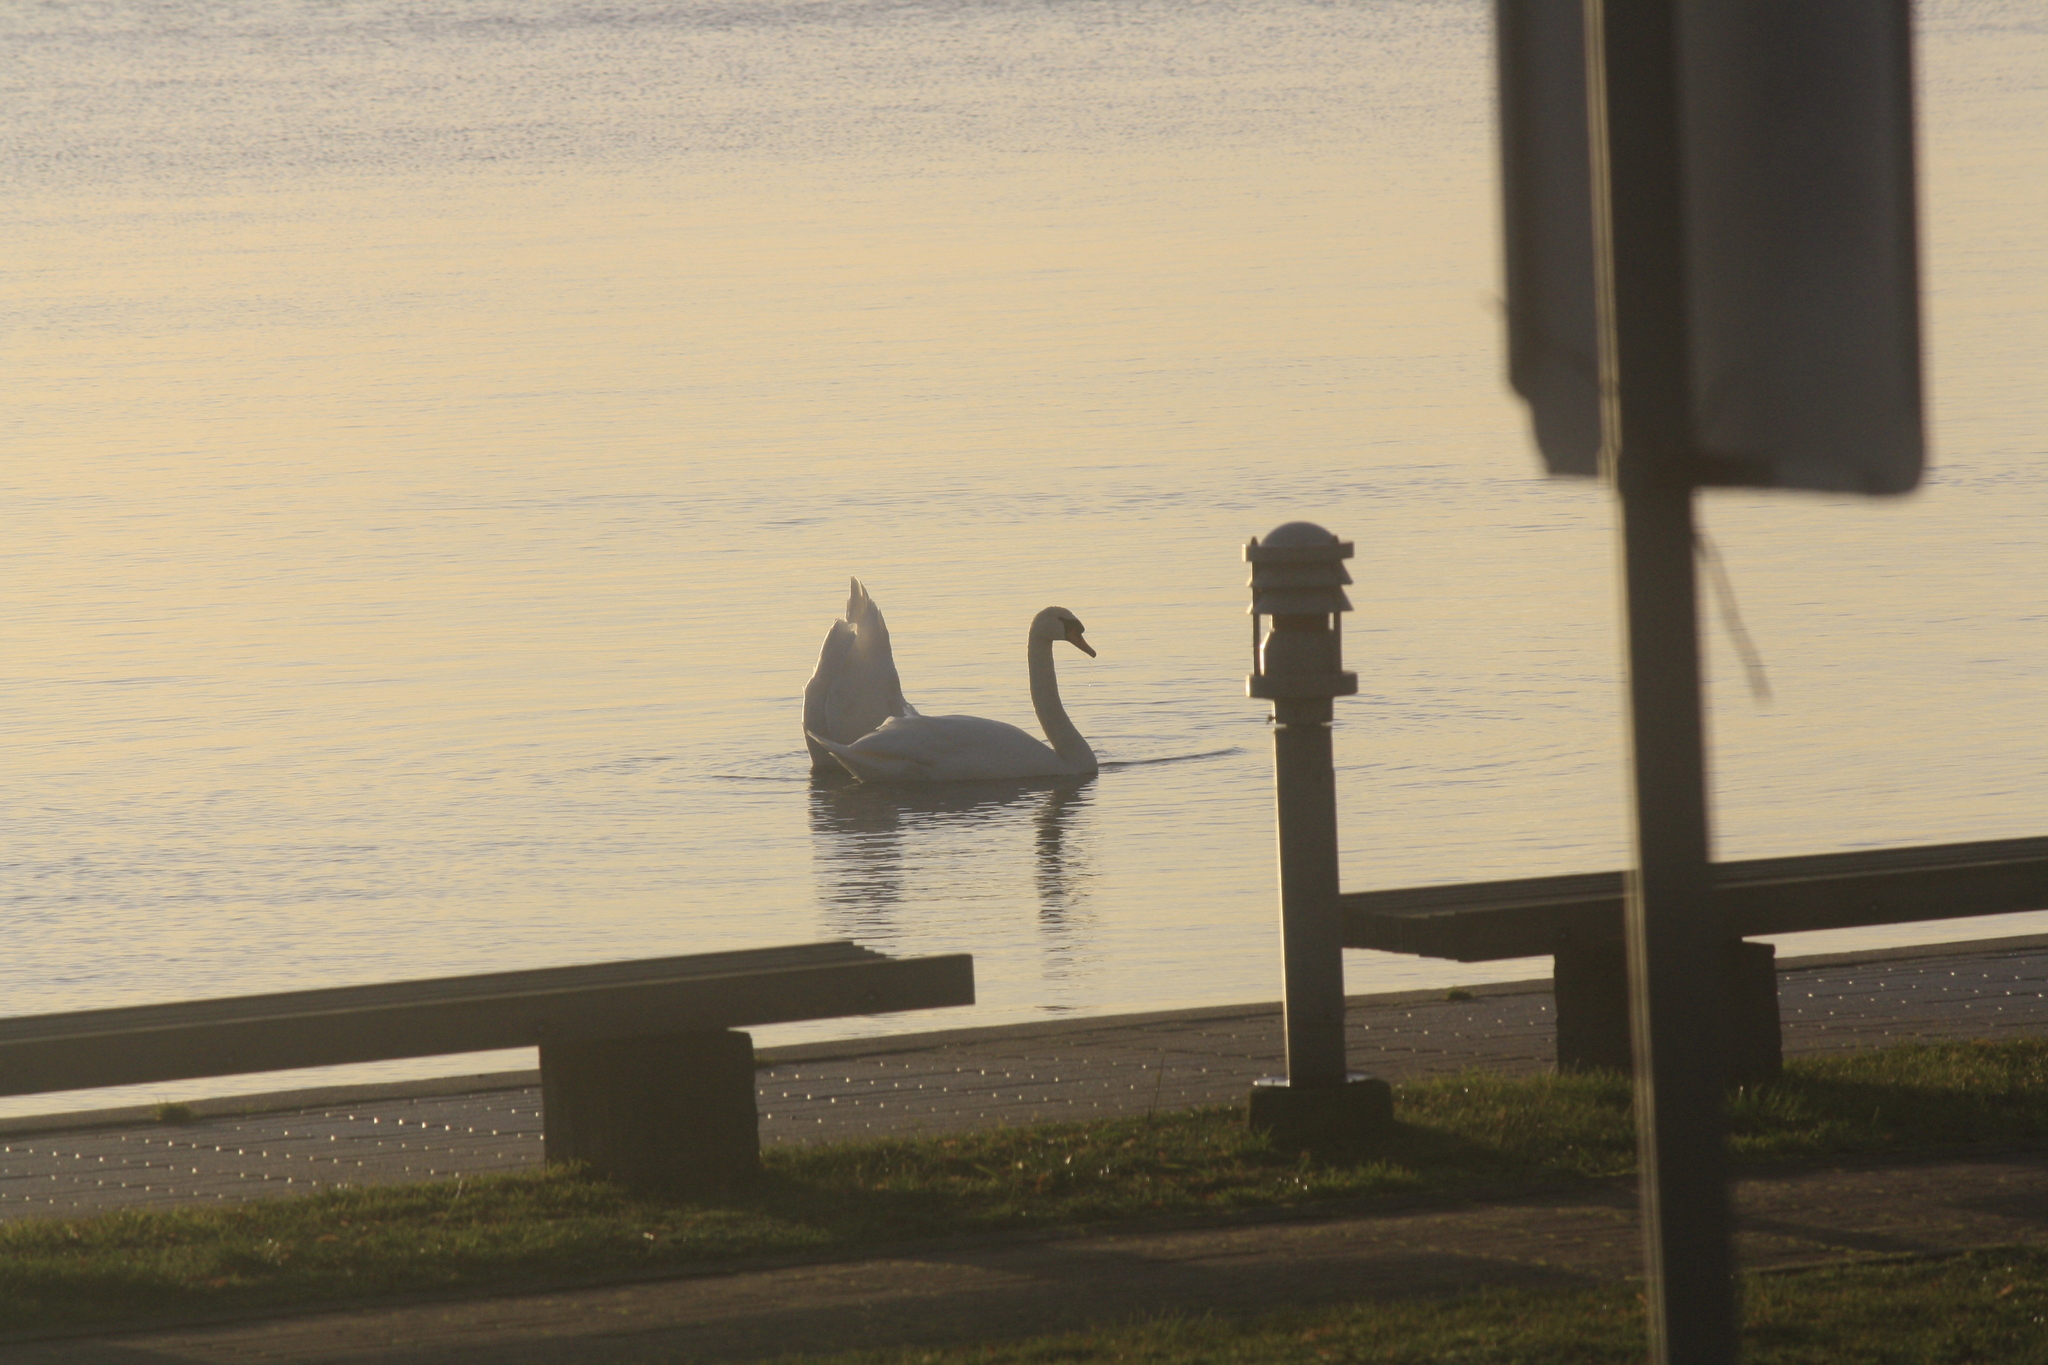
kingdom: Animalia
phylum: Chordata
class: Aves
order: Anseriformes
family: Anatidae
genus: Cygnus
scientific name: Cygnus olor
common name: Mute swan
